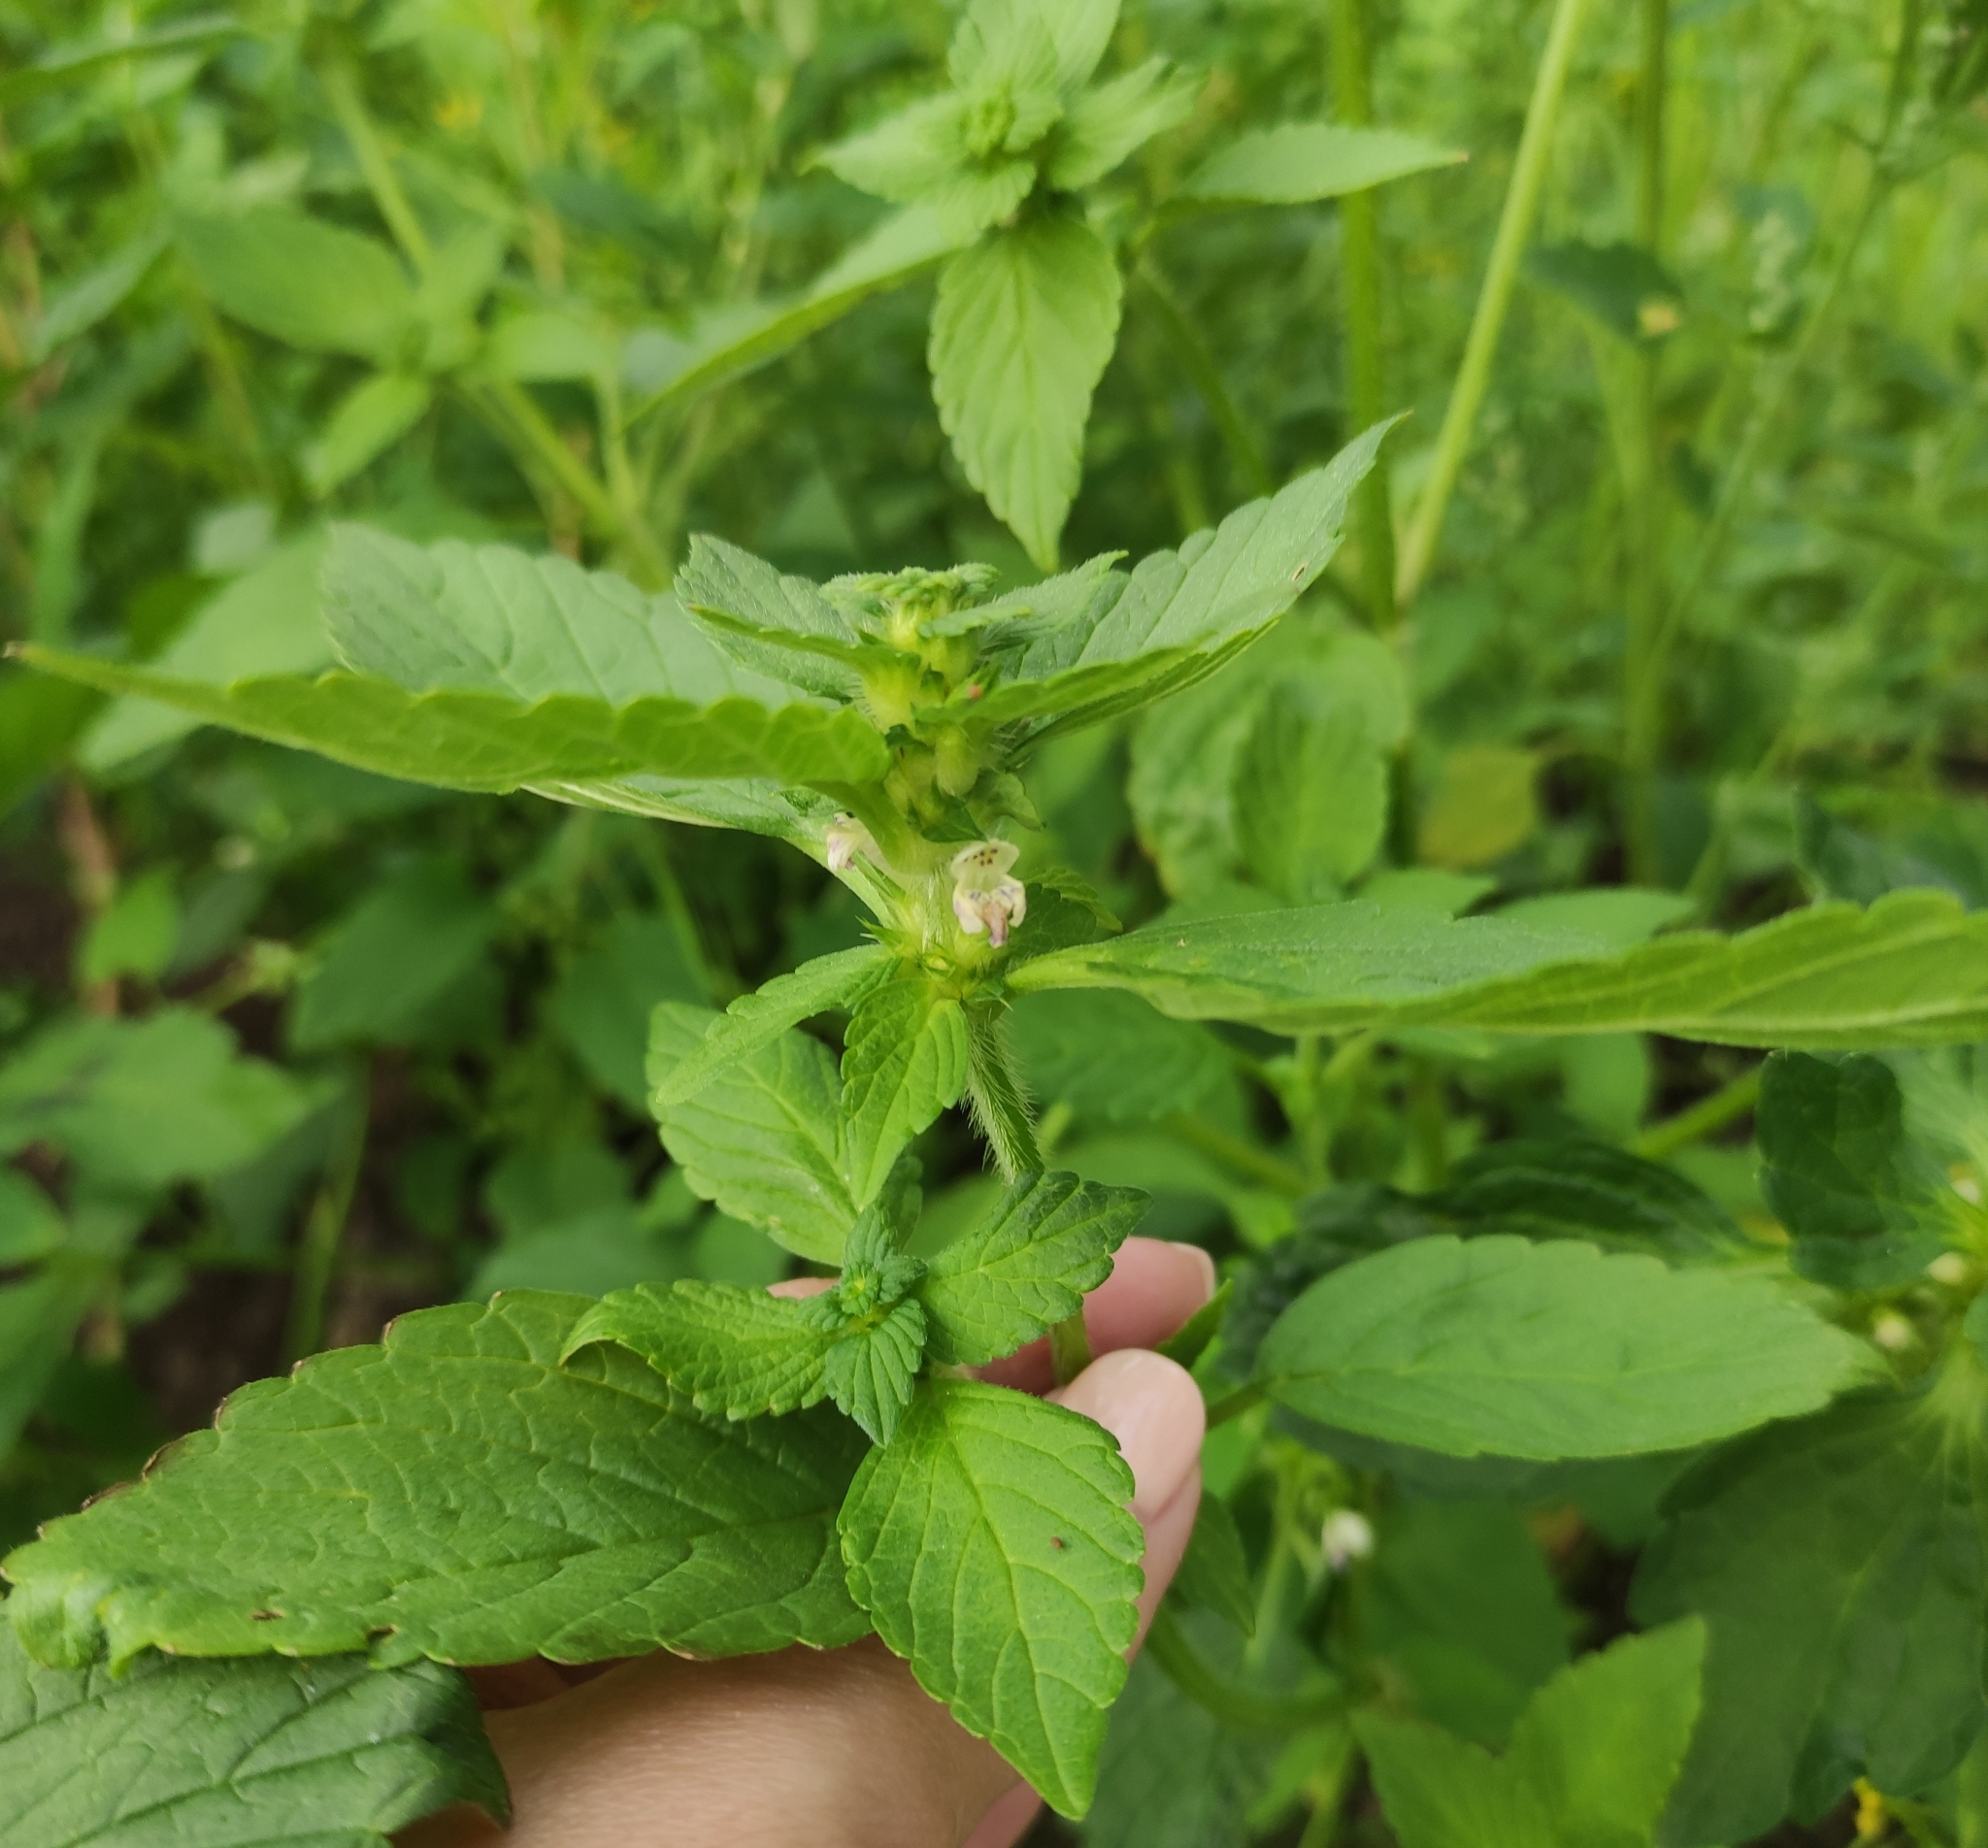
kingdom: Plantae
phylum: Tracheophyta
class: Magnoliopsida
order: Lamiales
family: Lamiaceae
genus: Galeopsis
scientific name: Galeopsis bifida
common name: Bifid hemp-nettle
